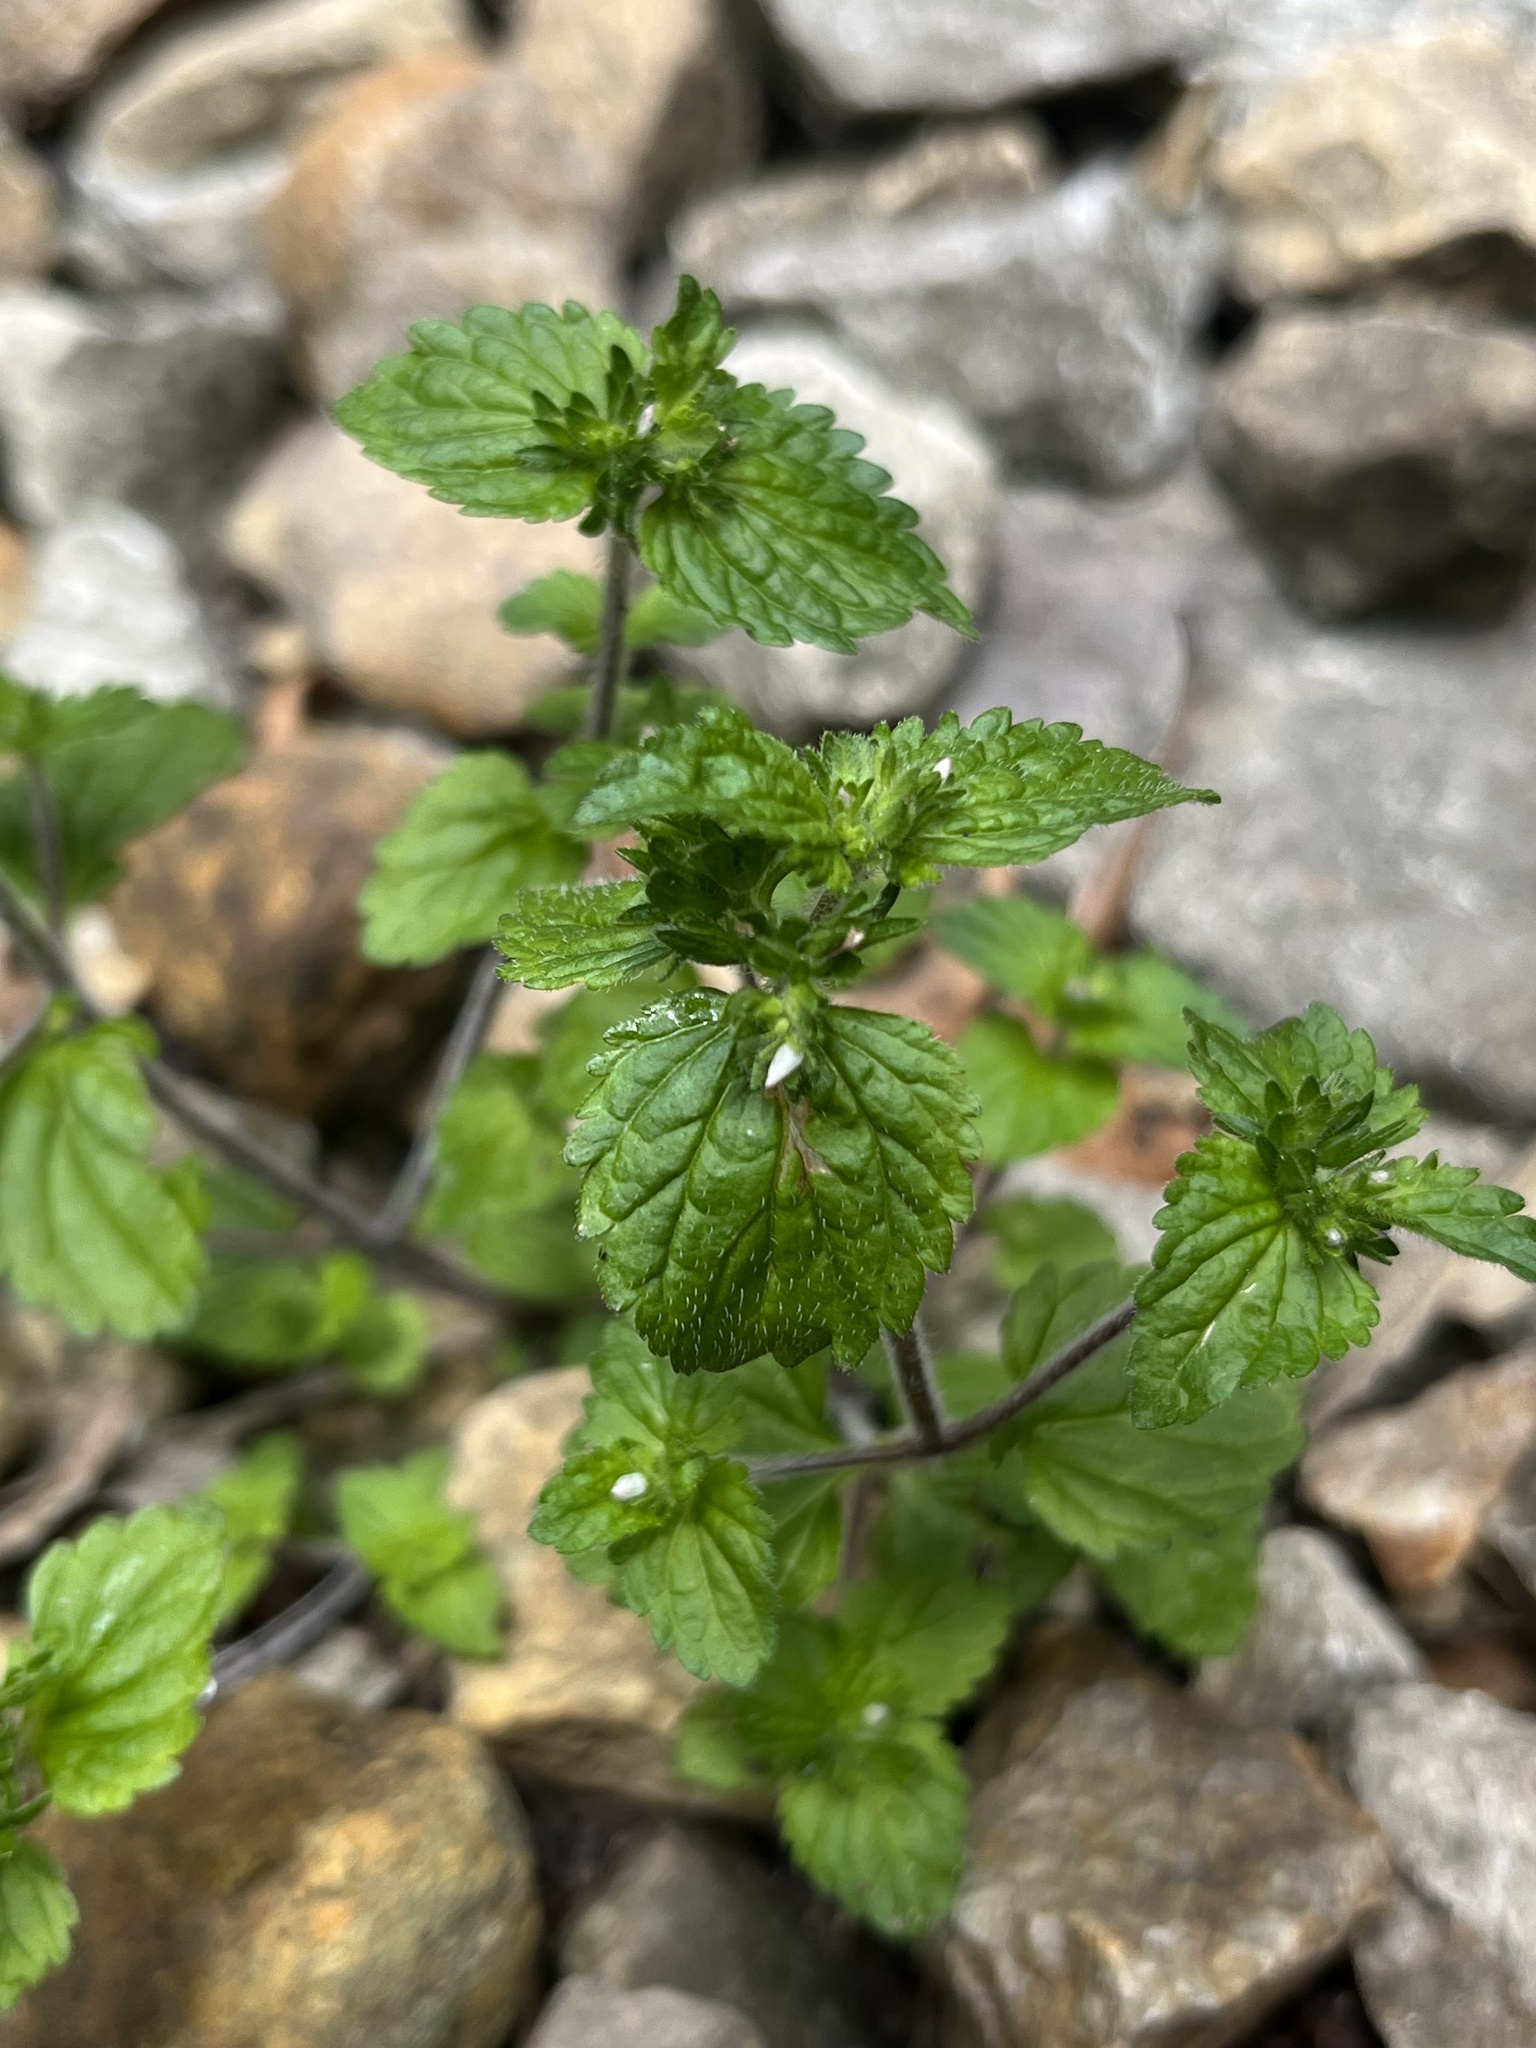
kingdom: Plantae
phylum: Tracheophyta
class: Magnoliopsida
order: Lamiales
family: Plantaginaceae
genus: Veronica
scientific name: Veronica javanica
